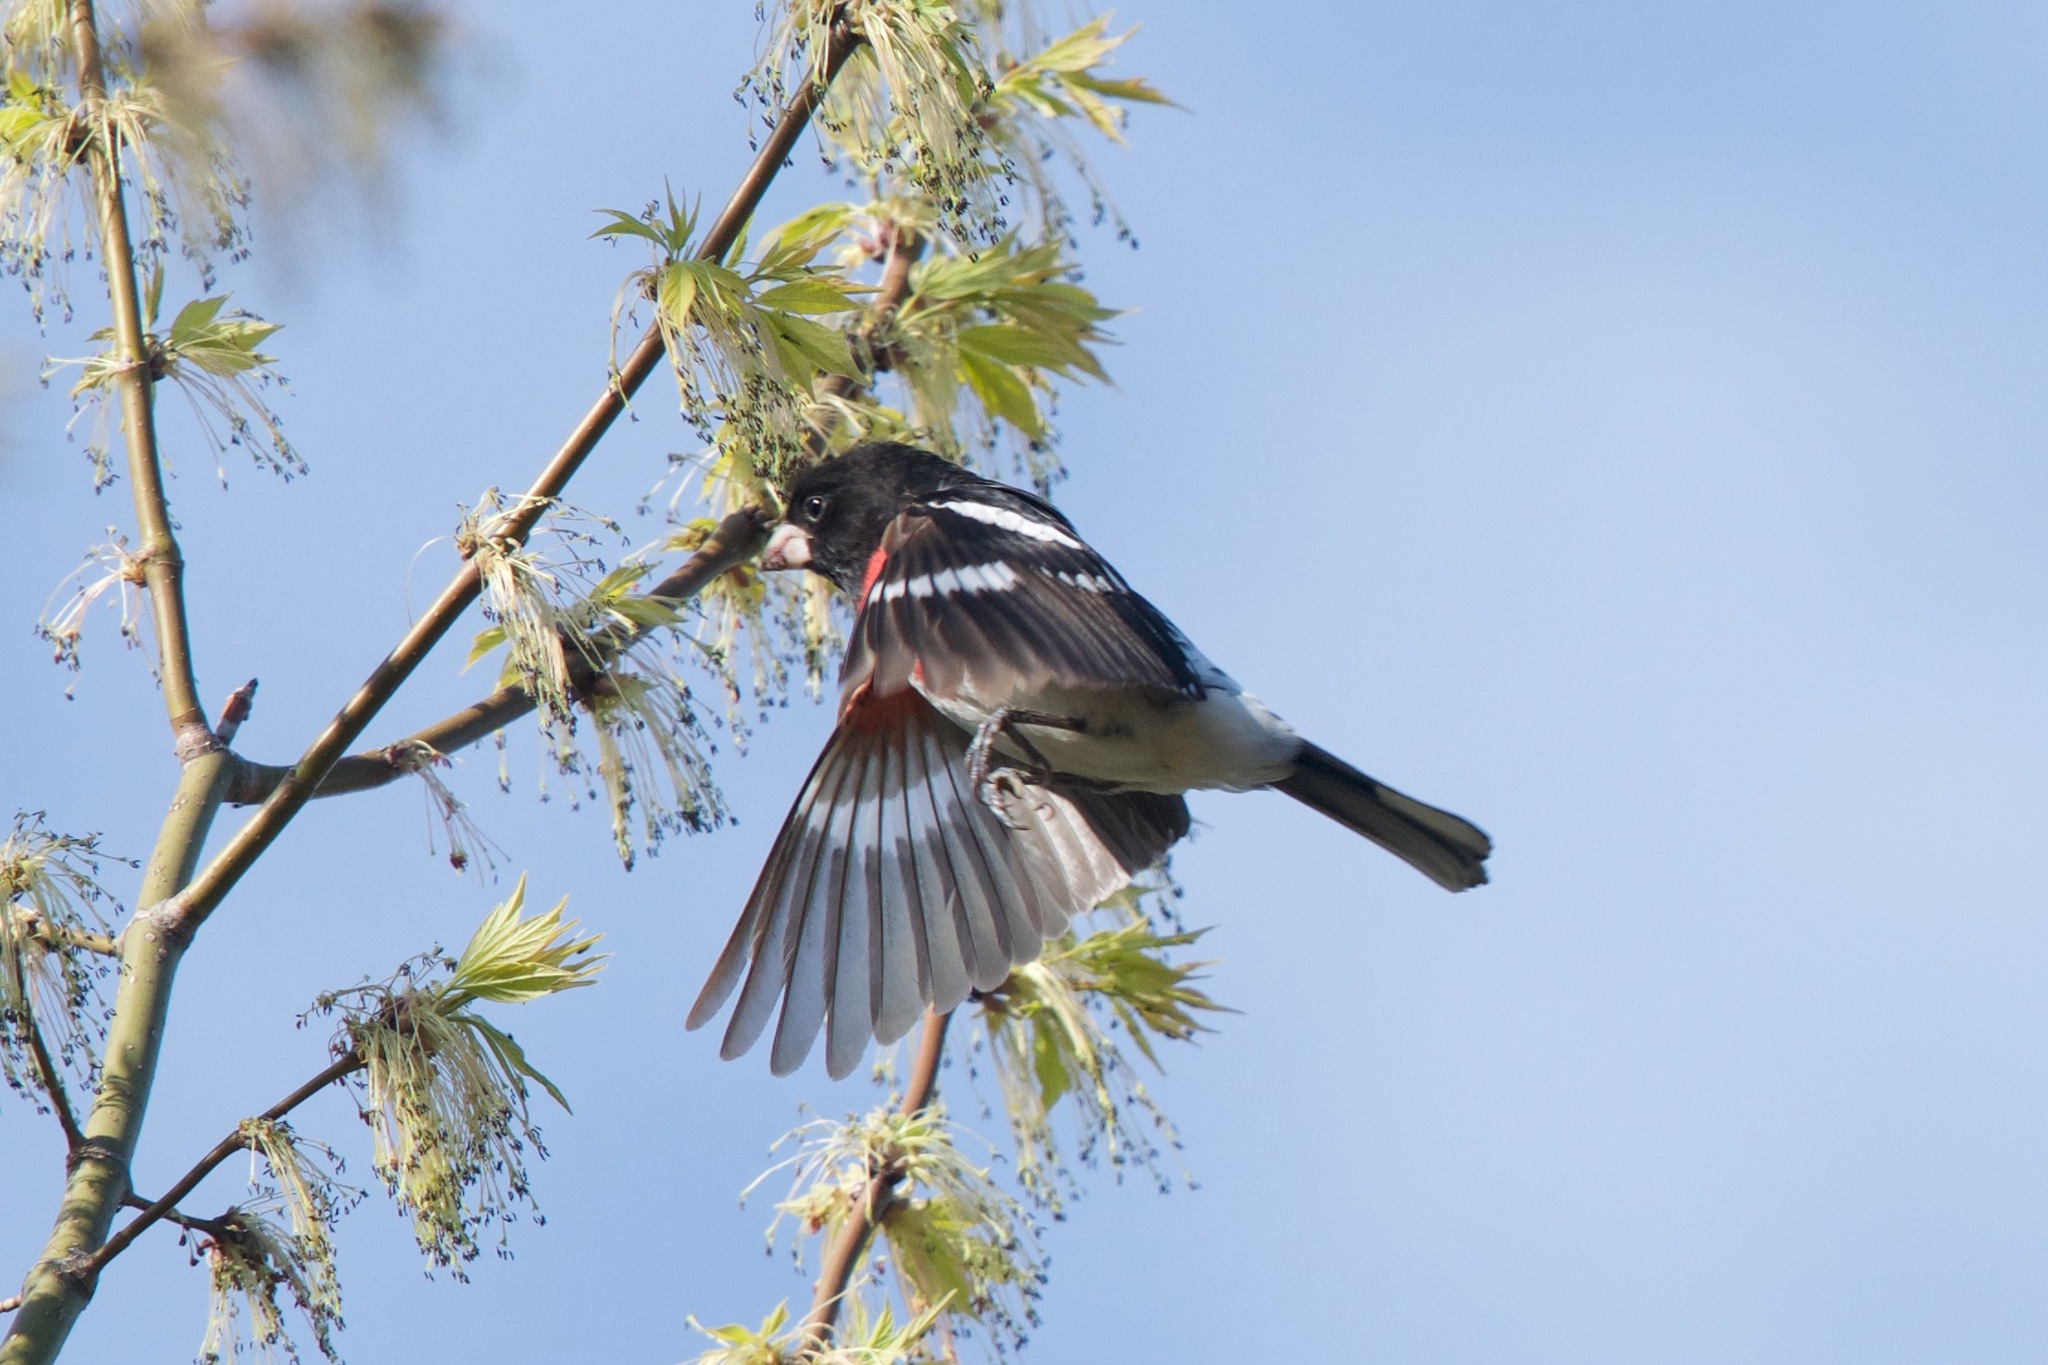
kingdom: Animalia
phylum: Chordata
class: Aves
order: Passeriformes
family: Cardinalidae
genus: Pheucticus
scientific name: Pheucticus ludovicianus
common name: Rose-breasted grosbeak
